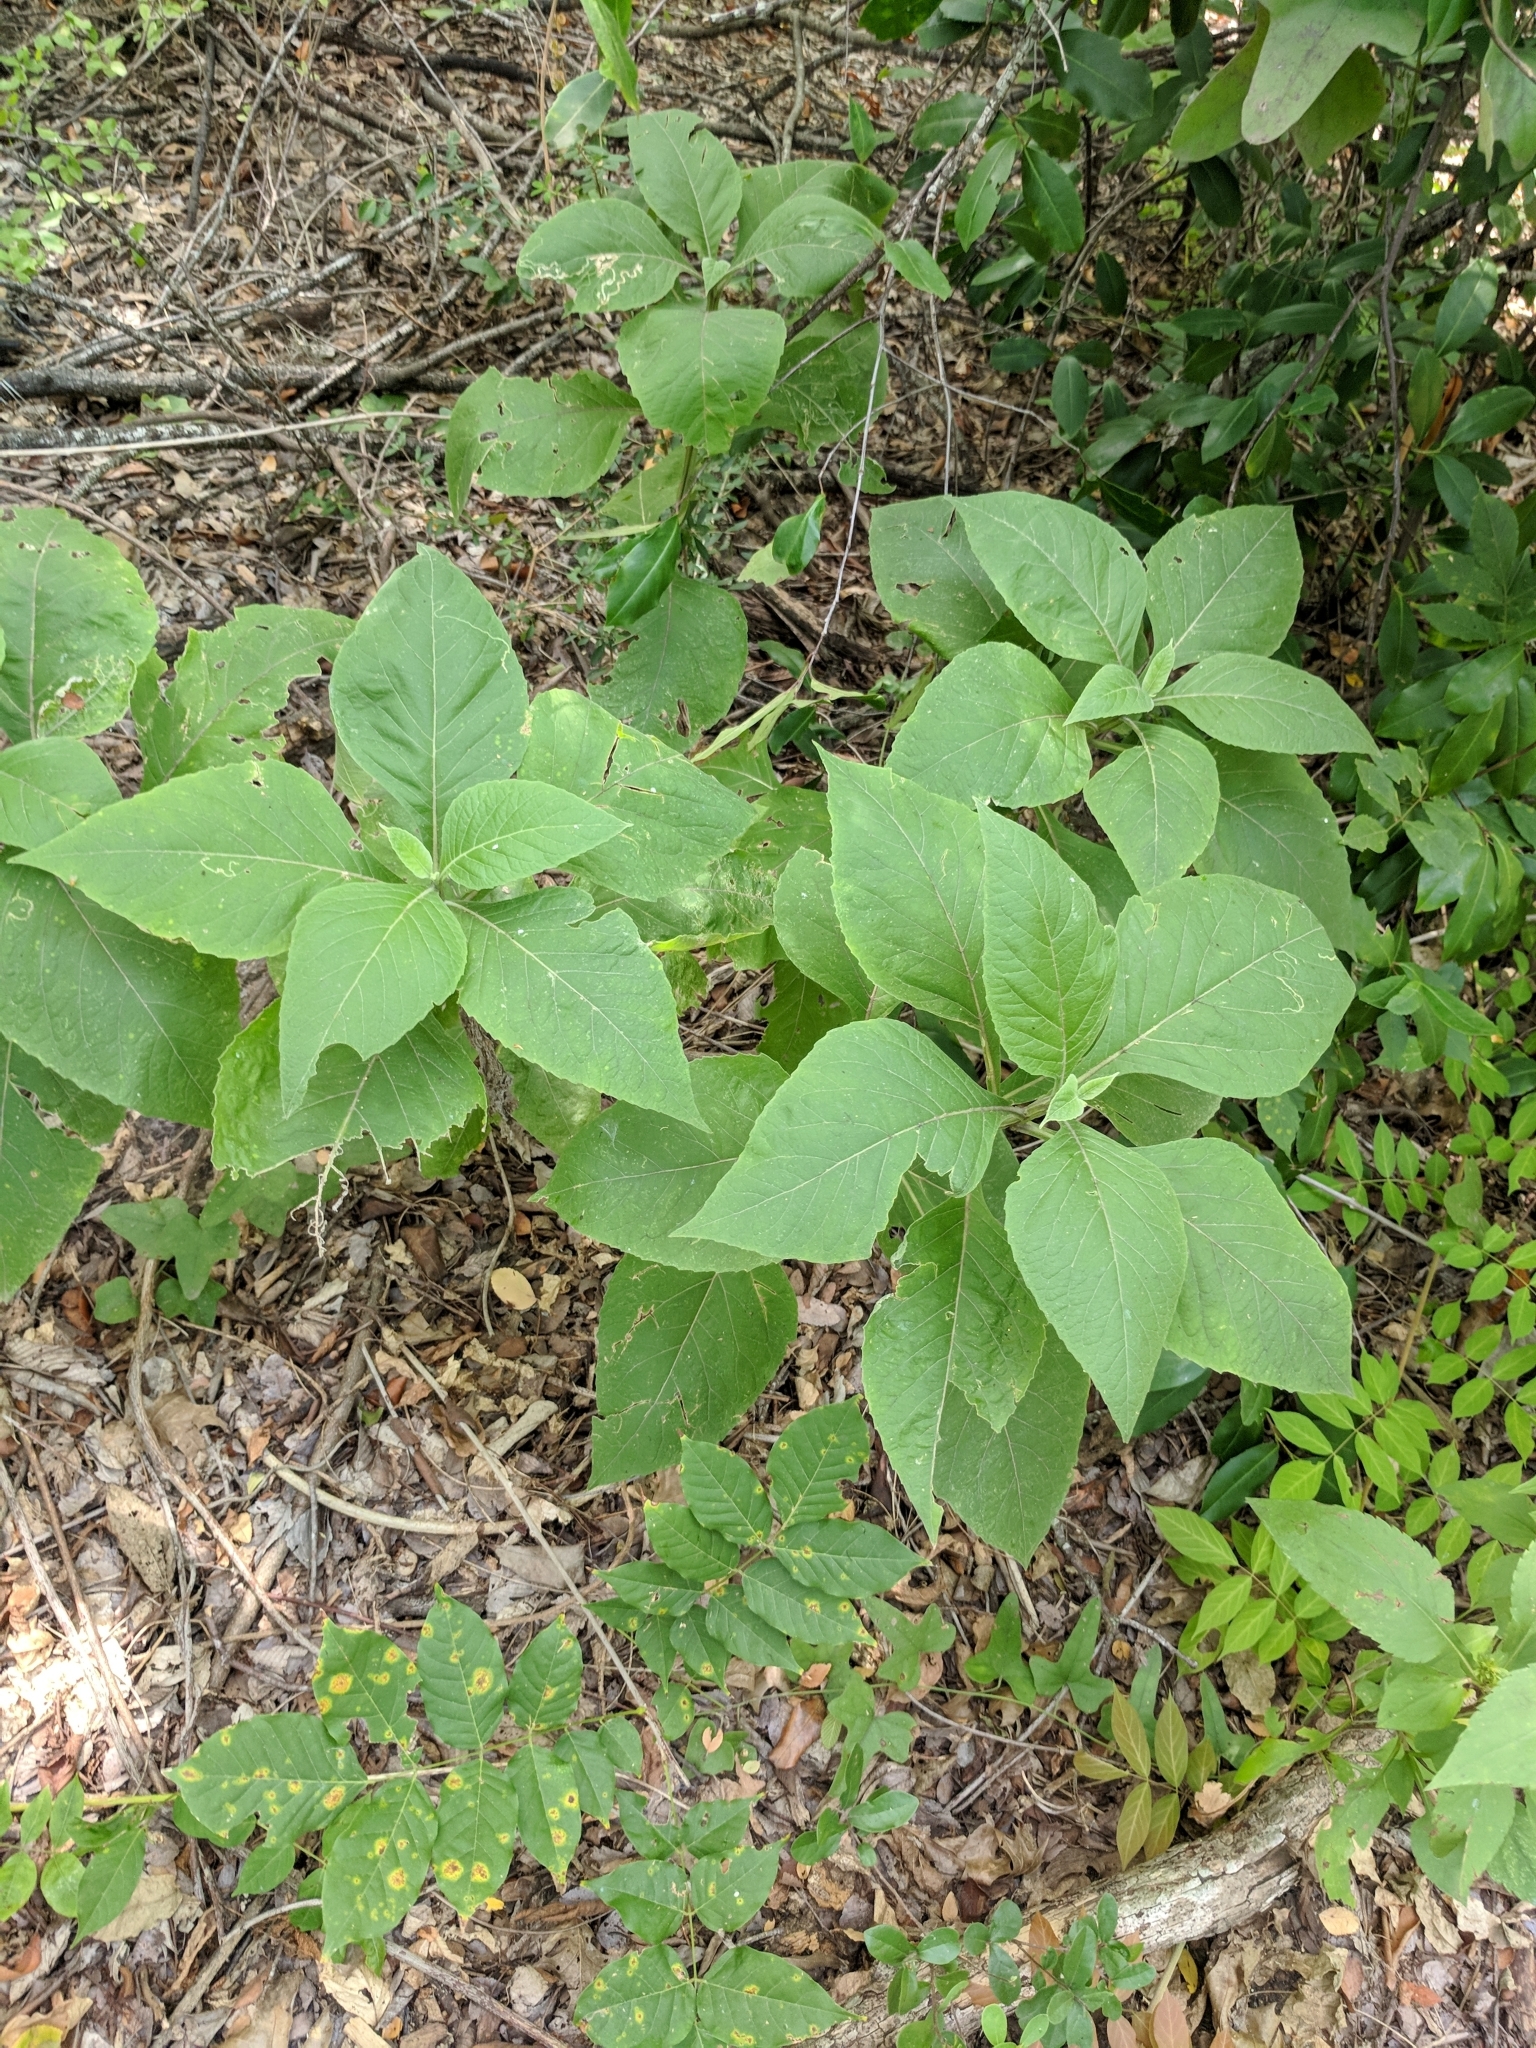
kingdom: Plantae
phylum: Tracheophyta
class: Magnoliopsida
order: Asterales
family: Asteraceae
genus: Verbesina
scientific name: Verbesina virginica
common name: Frostweed
